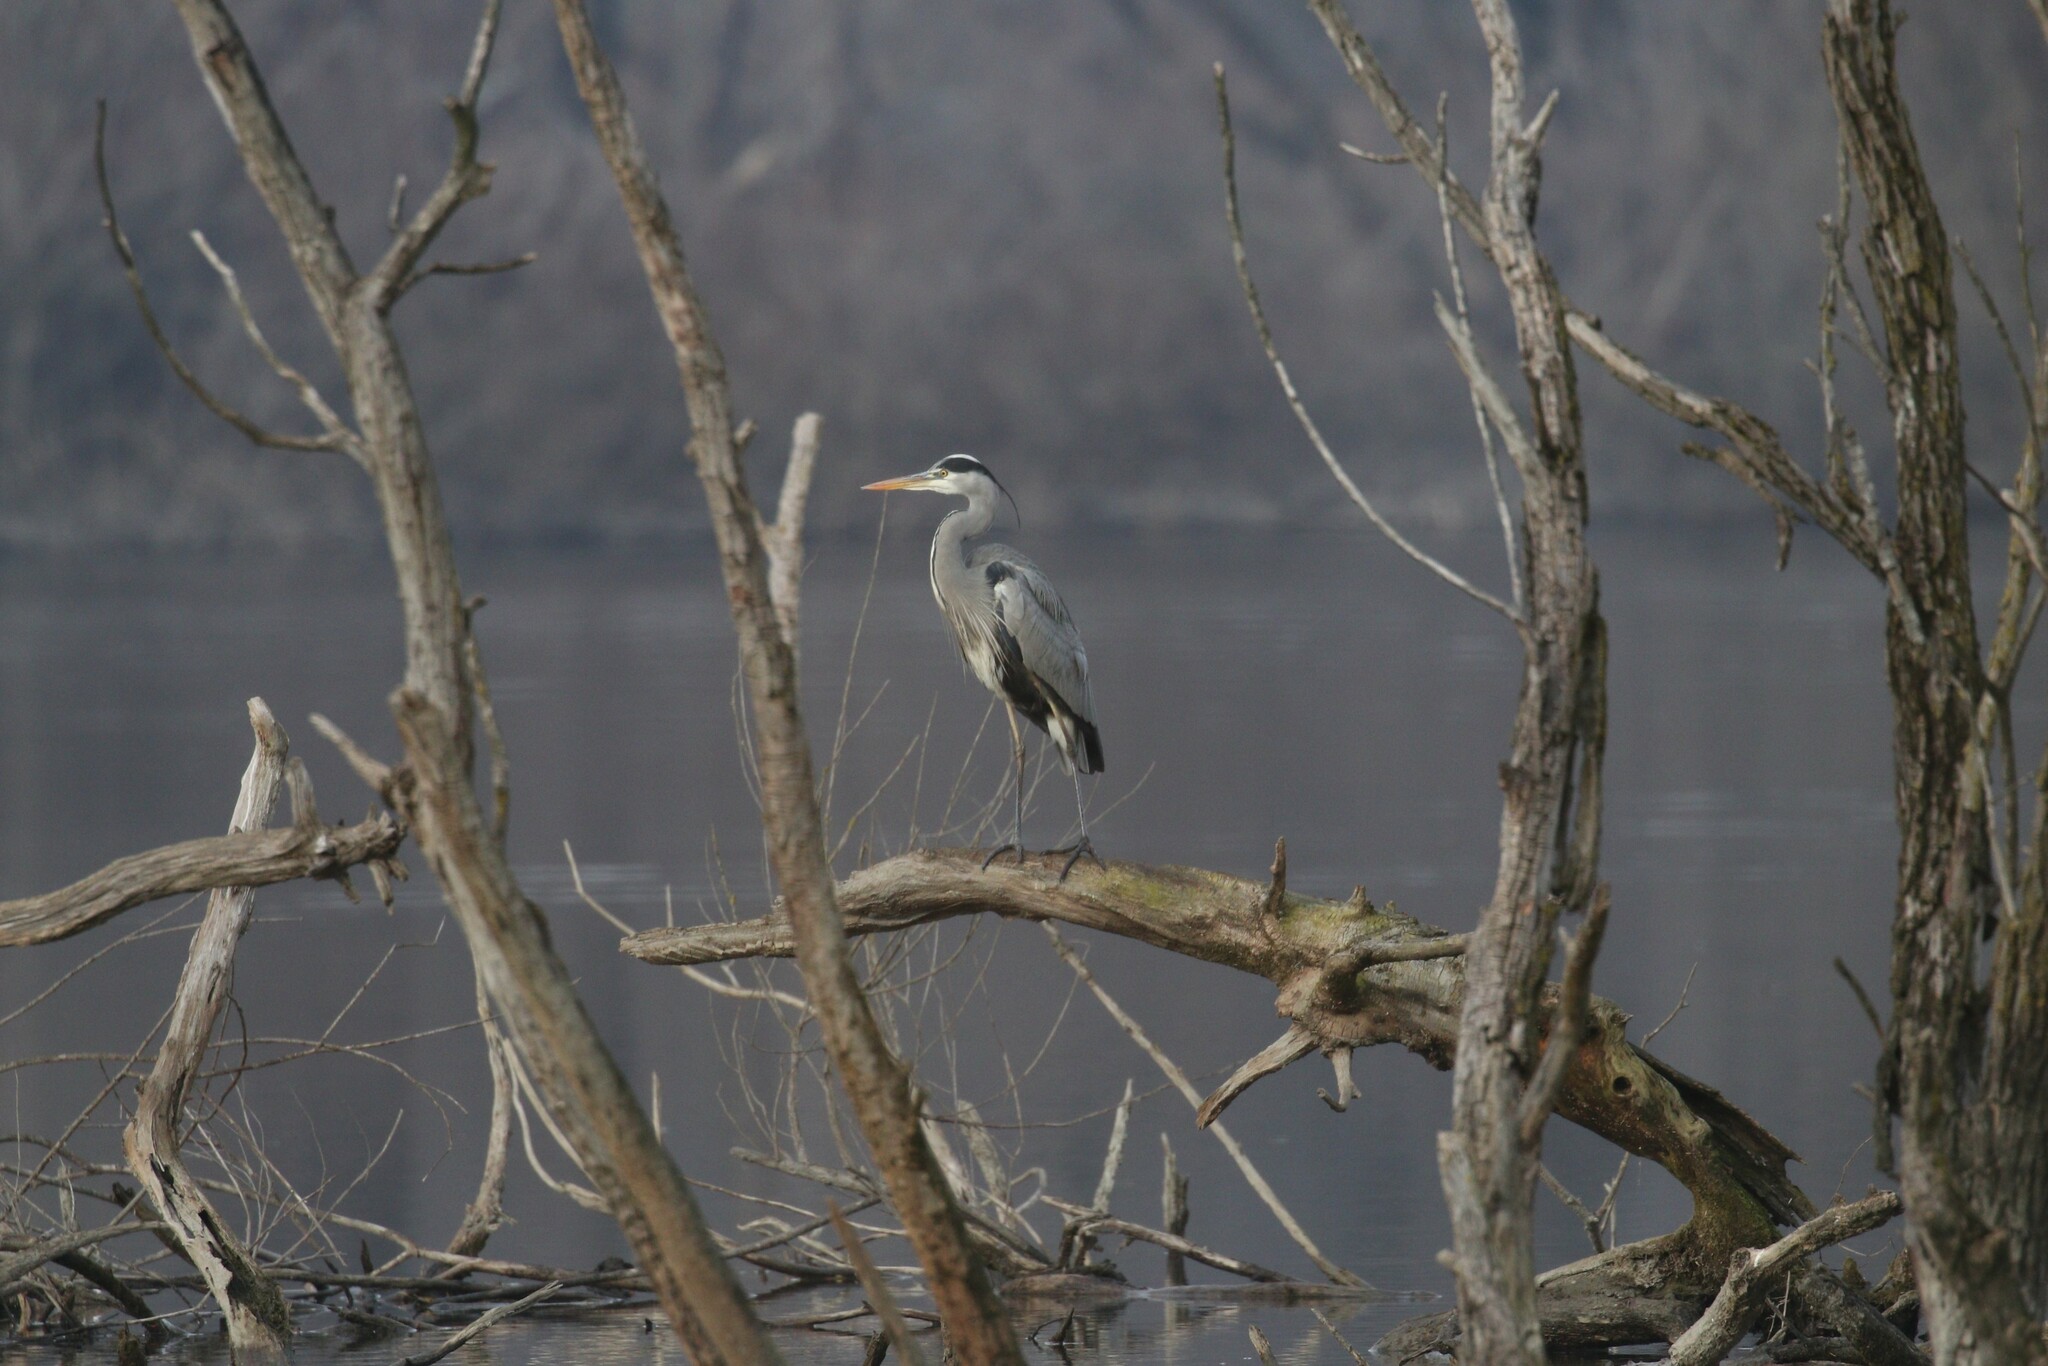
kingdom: Animalia
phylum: Chordata
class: Aves
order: Pelecaniformes
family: Ardeidae
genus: Ardea
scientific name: Ardea cinerea
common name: Grey heron
